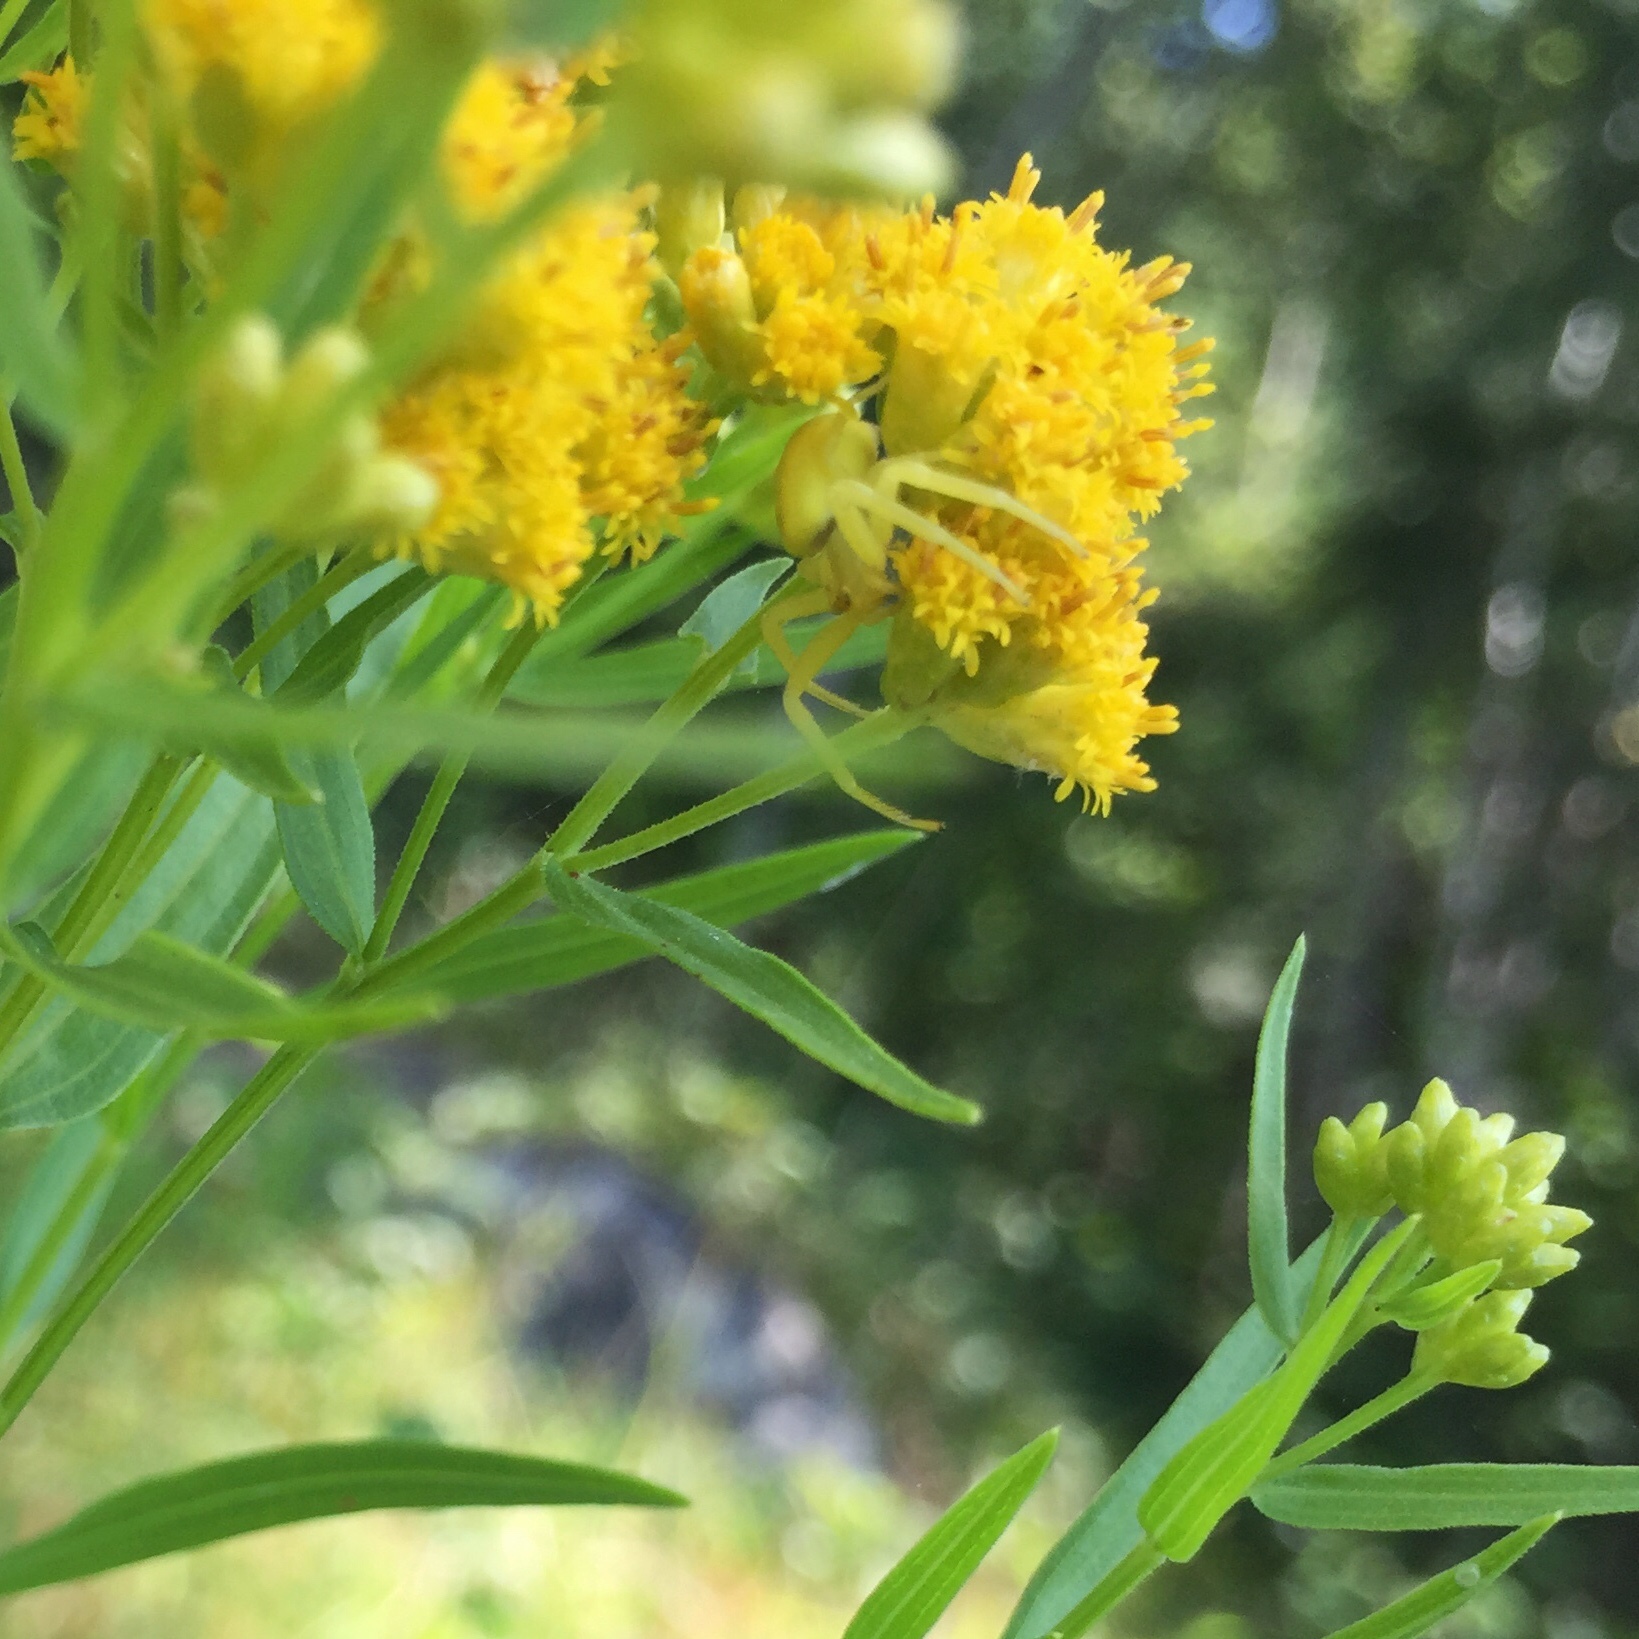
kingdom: Animalia
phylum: Arthropoda
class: Arachnida
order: Araneae
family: Thomisidae
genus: Misumena
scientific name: Misumena vatia
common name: Goldenrod crab spider
